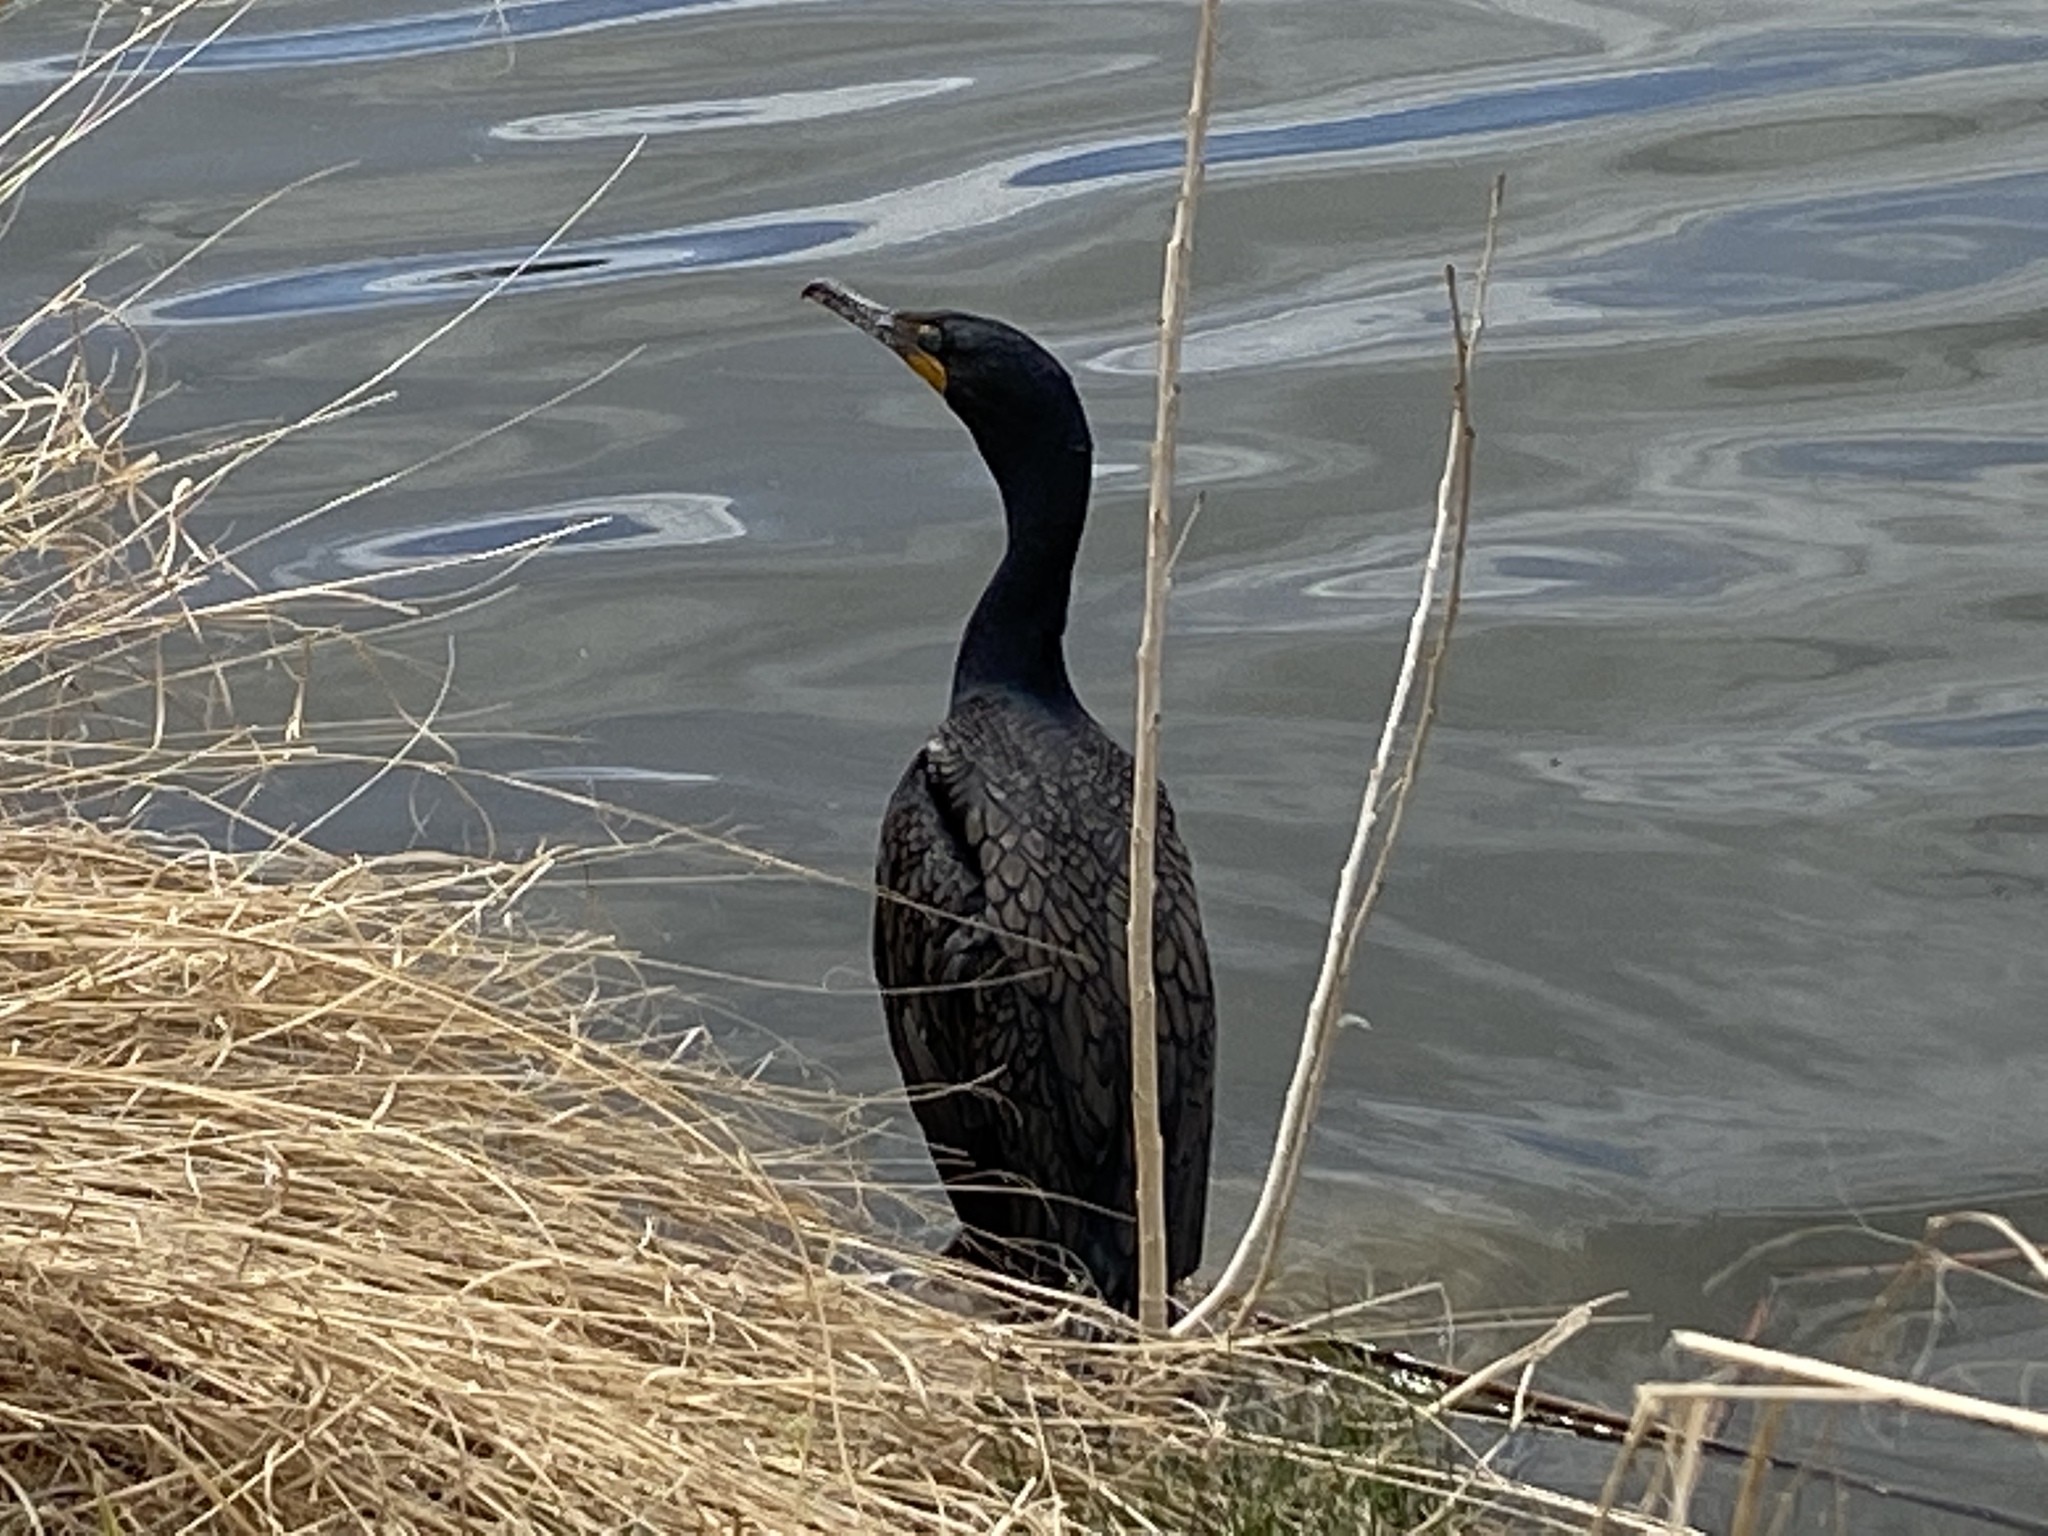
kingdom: Animalia
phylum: Chordata
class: Aves
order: Suliformes
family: Phalacrocoracidae
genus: Phalacrocorax
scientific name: Phalacrocorax auritus
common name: Double-crested cormorant
